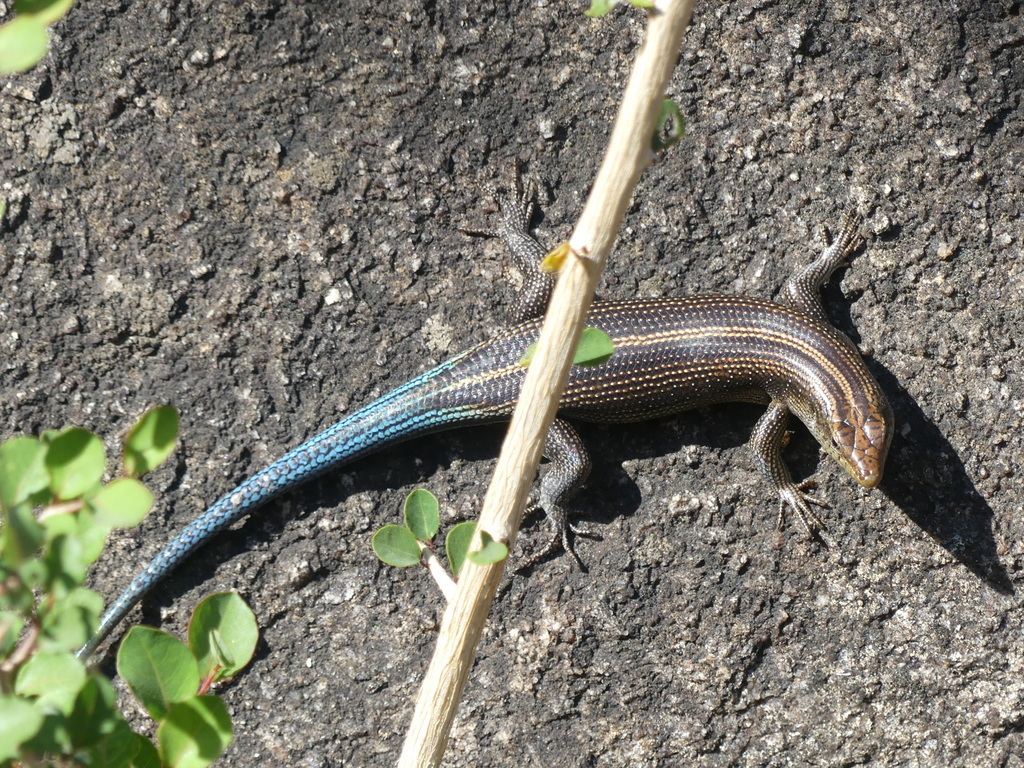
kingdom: Animalia
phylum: Chordata
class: Squamata
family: Scincidae
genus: Trachylepis
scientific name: Trachylepis margaritifera
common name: Rainbow skink
